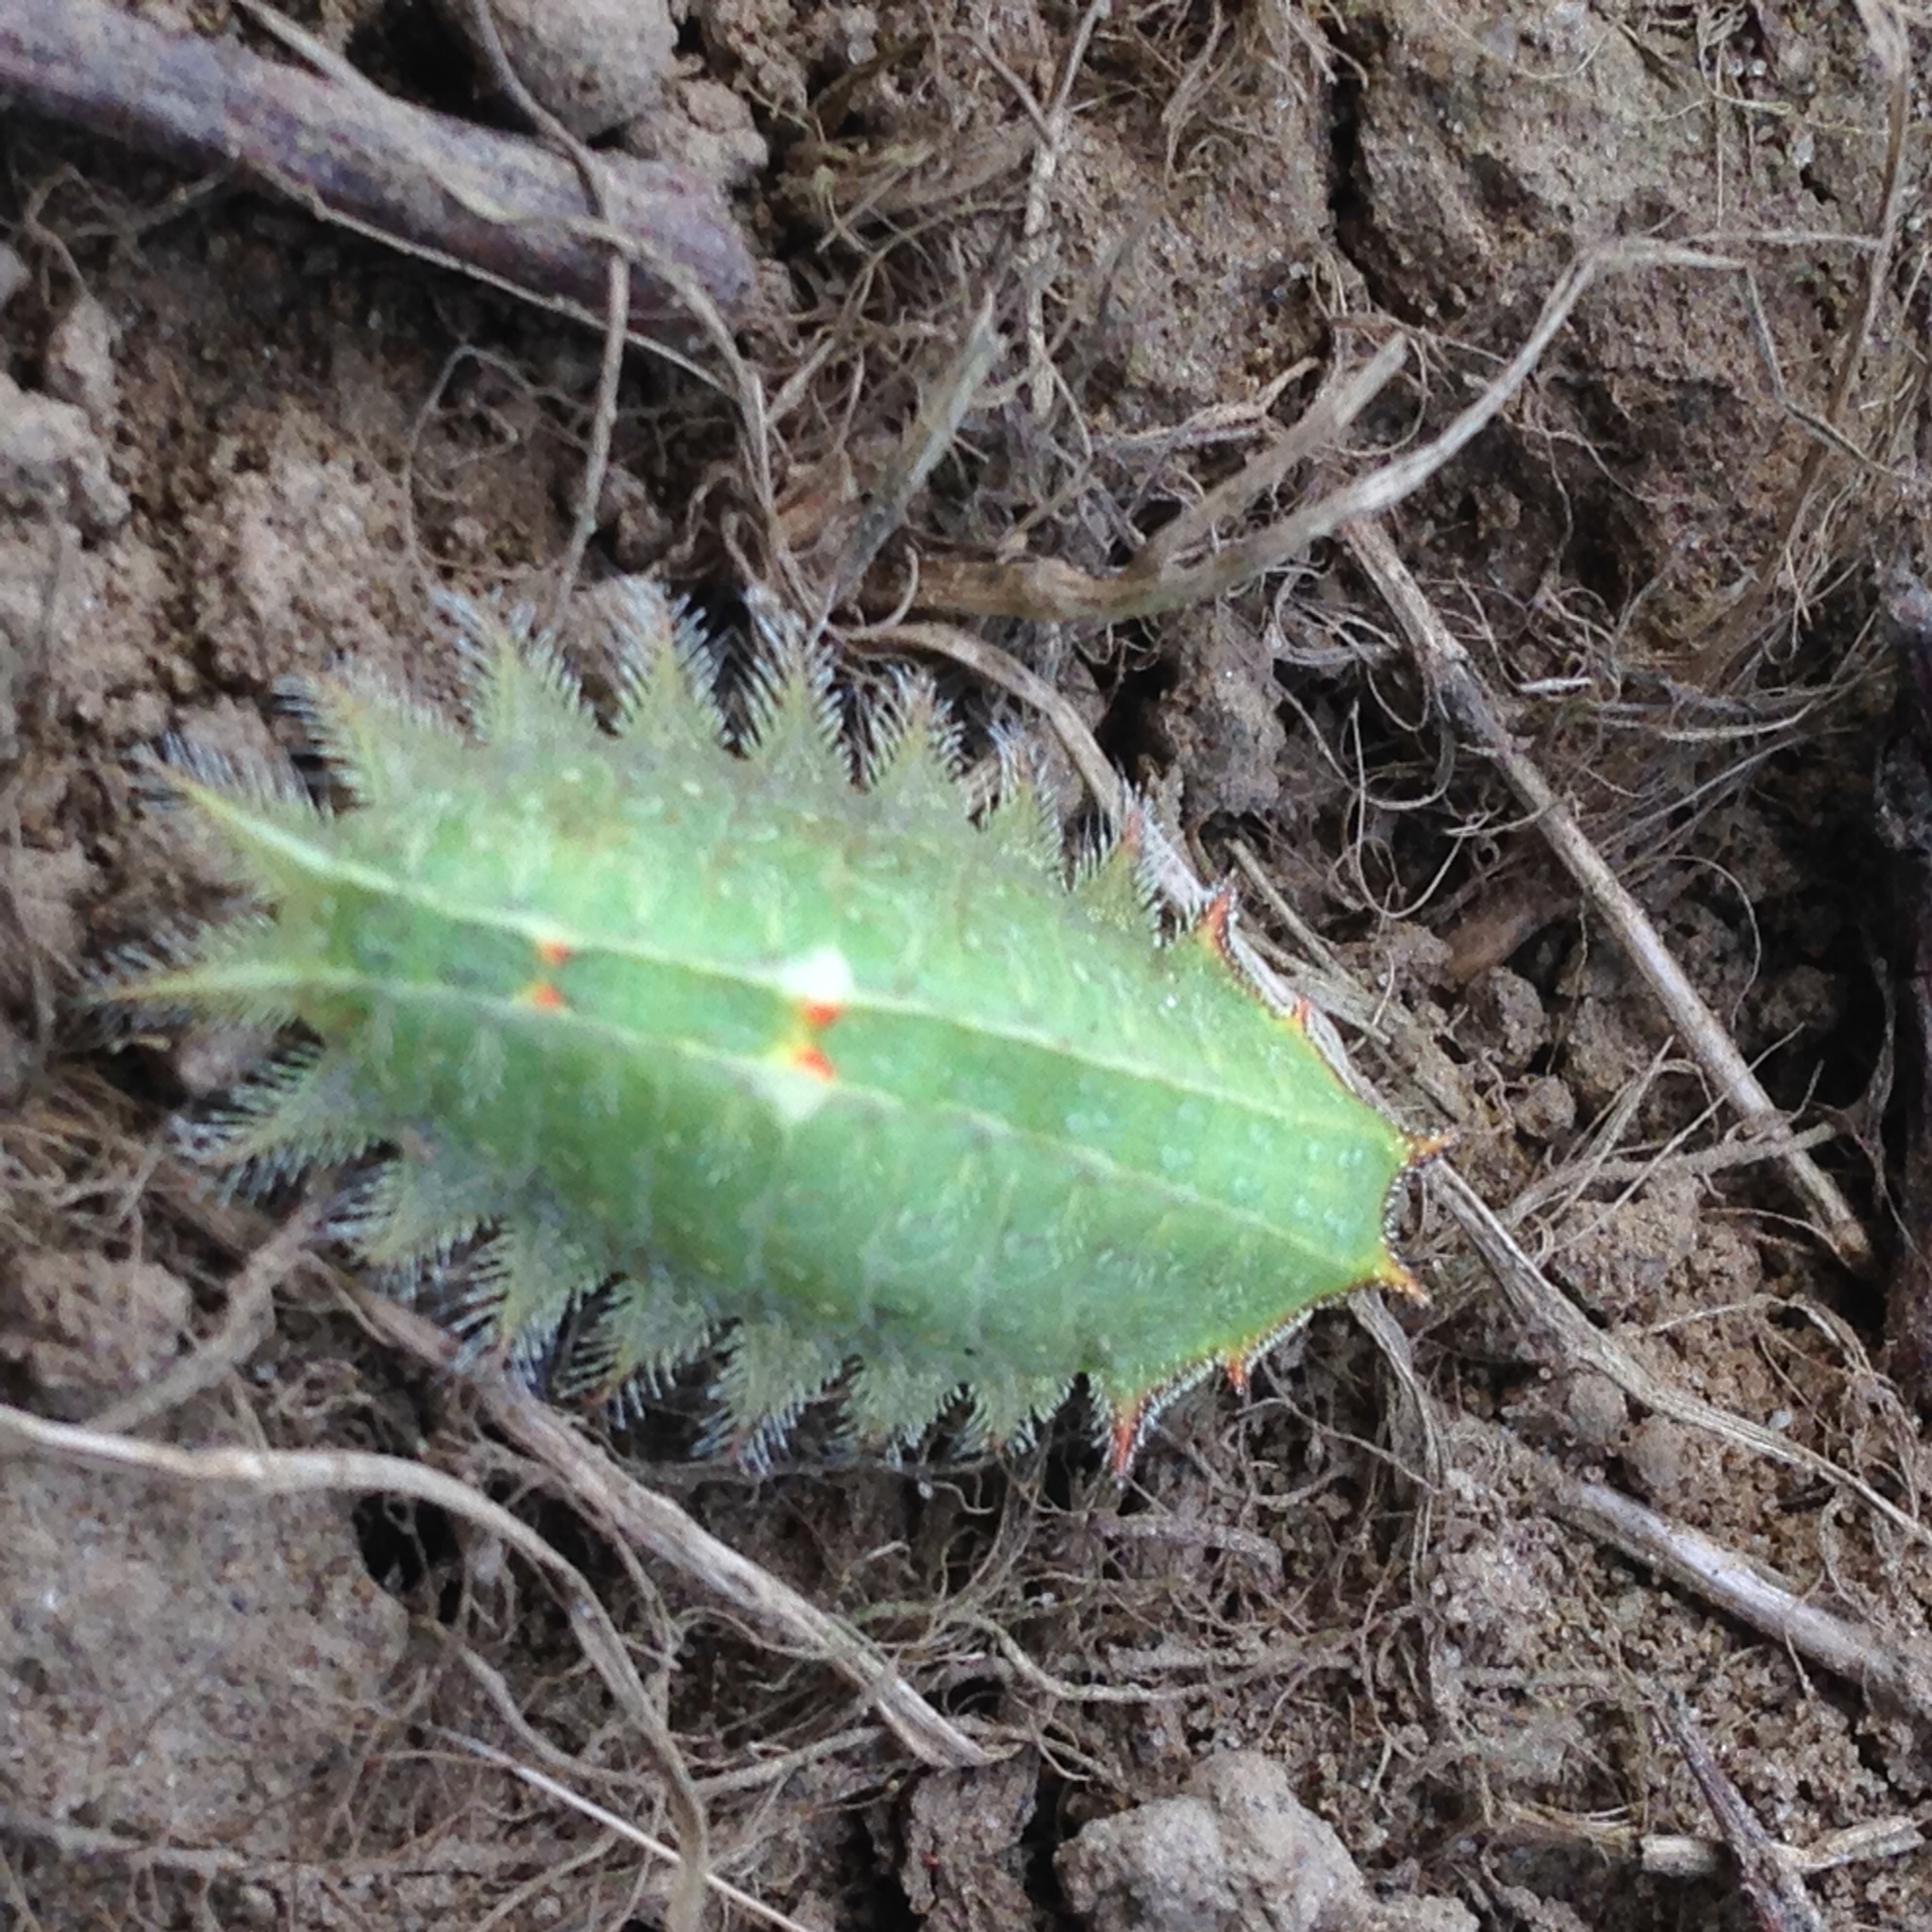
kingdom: Animalia
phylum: Arthropoda
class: Insecta
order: Lepidoptera
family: Limacodidae
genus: Isa
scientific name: Isa textula
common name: Crowned slug moth
